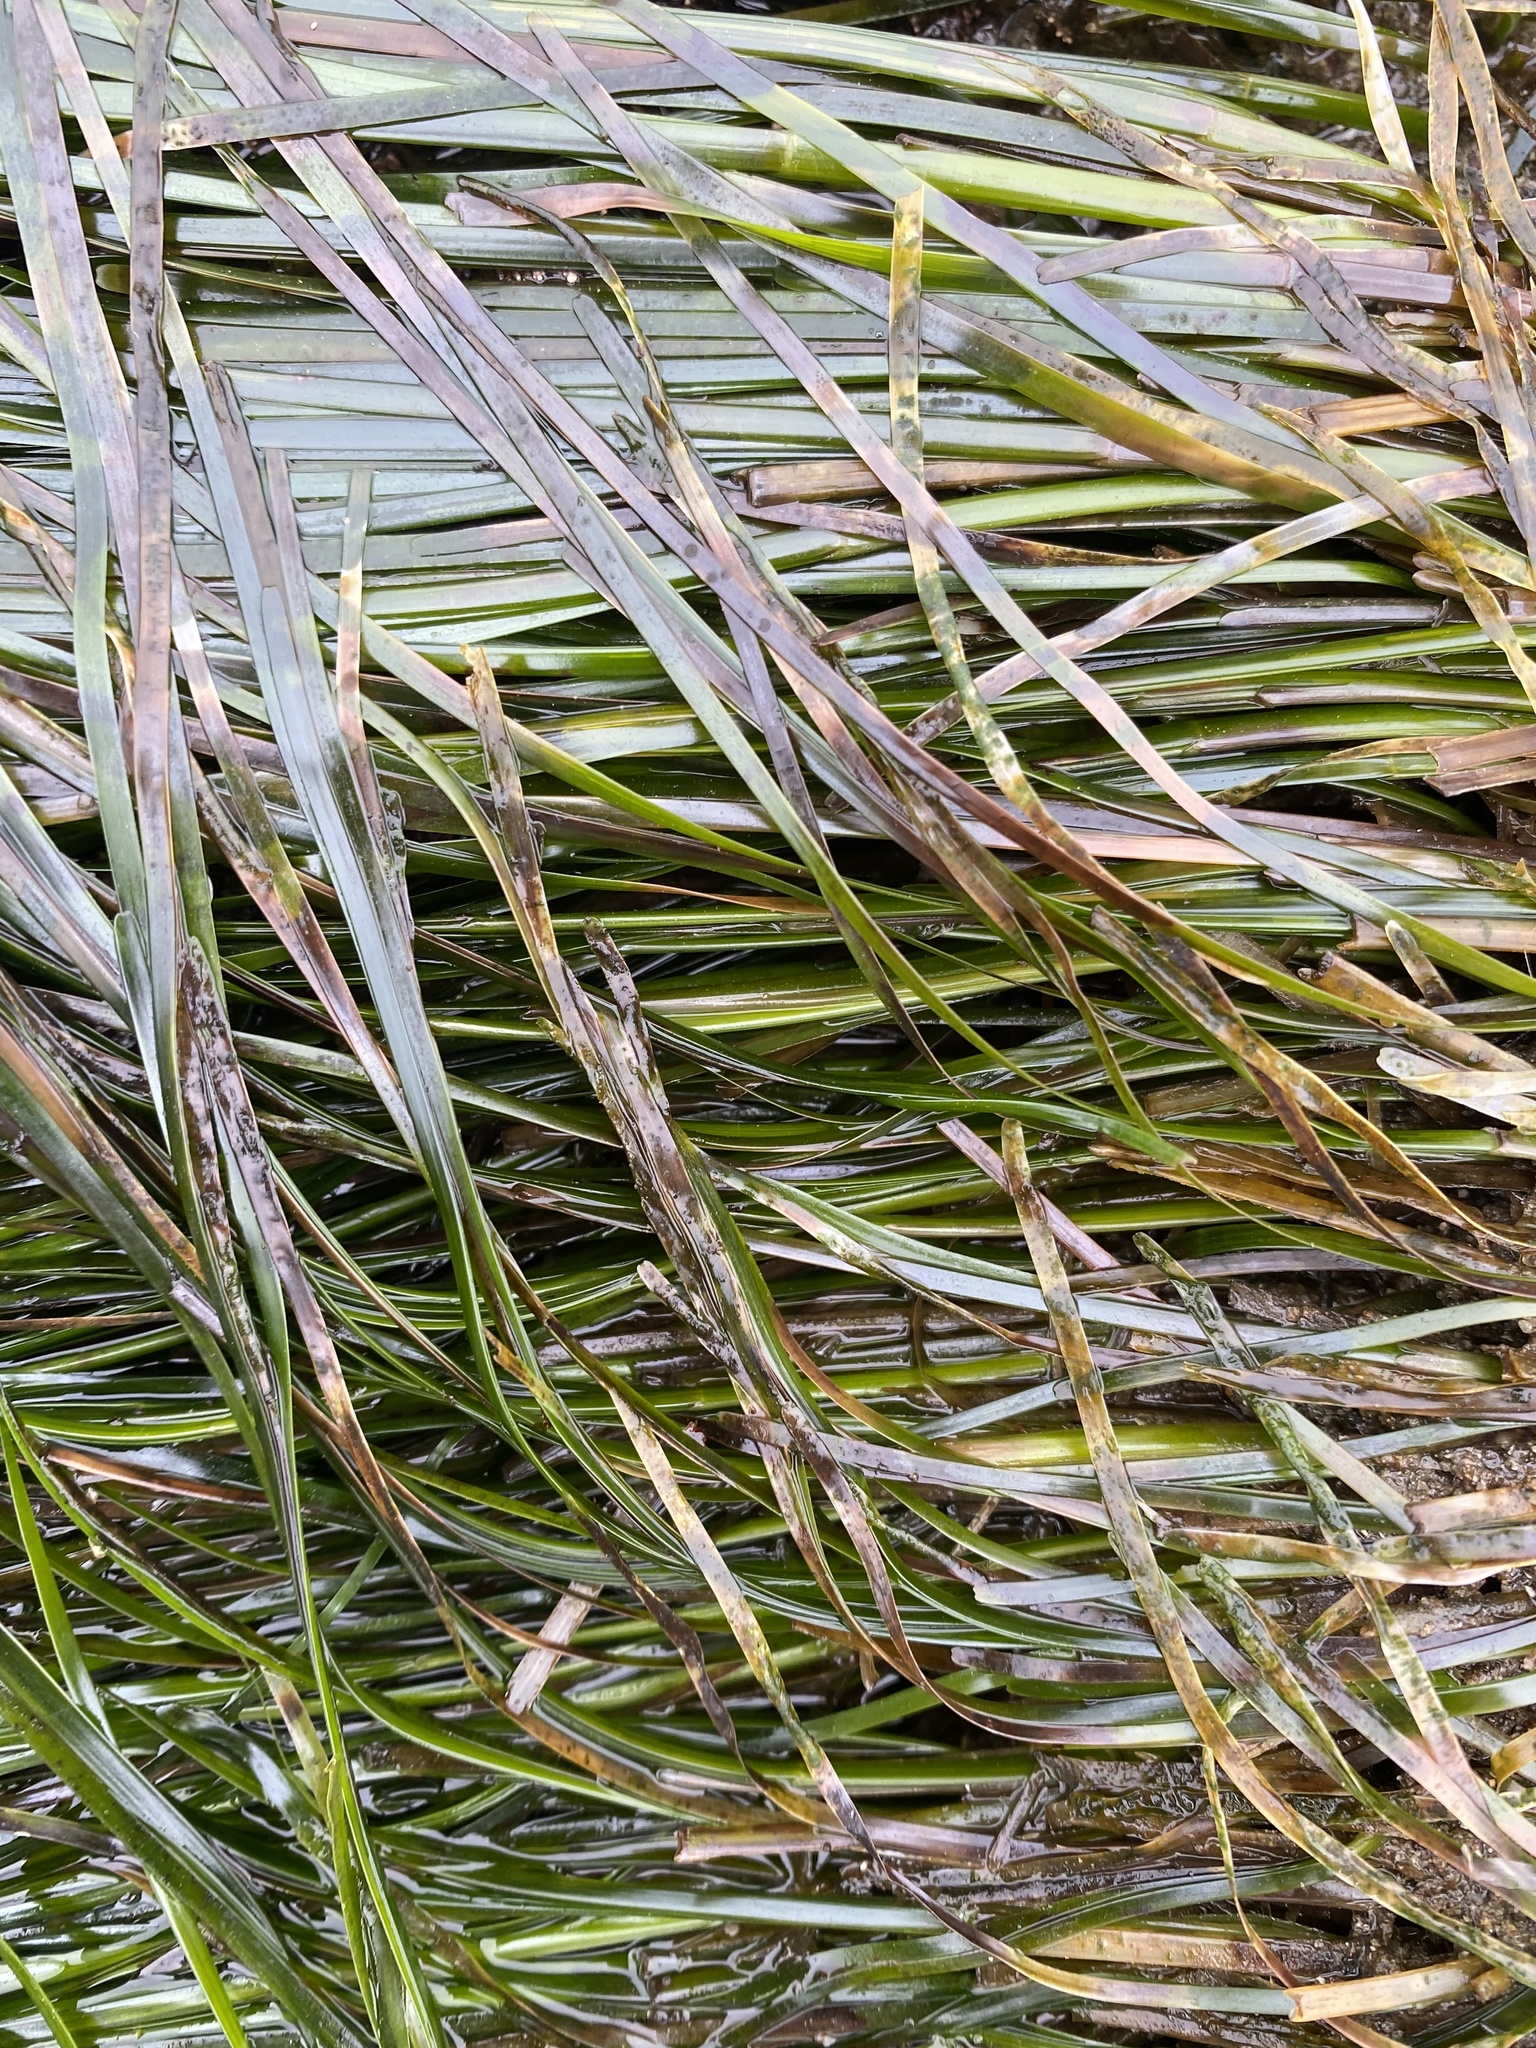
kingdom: Plantae
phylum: Tracheophyta
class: Liliopsida
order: Alismatales
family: Zosteraceae
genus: Phyllospadix
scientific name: Phyllospadix scouleri
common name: Species code: ps
